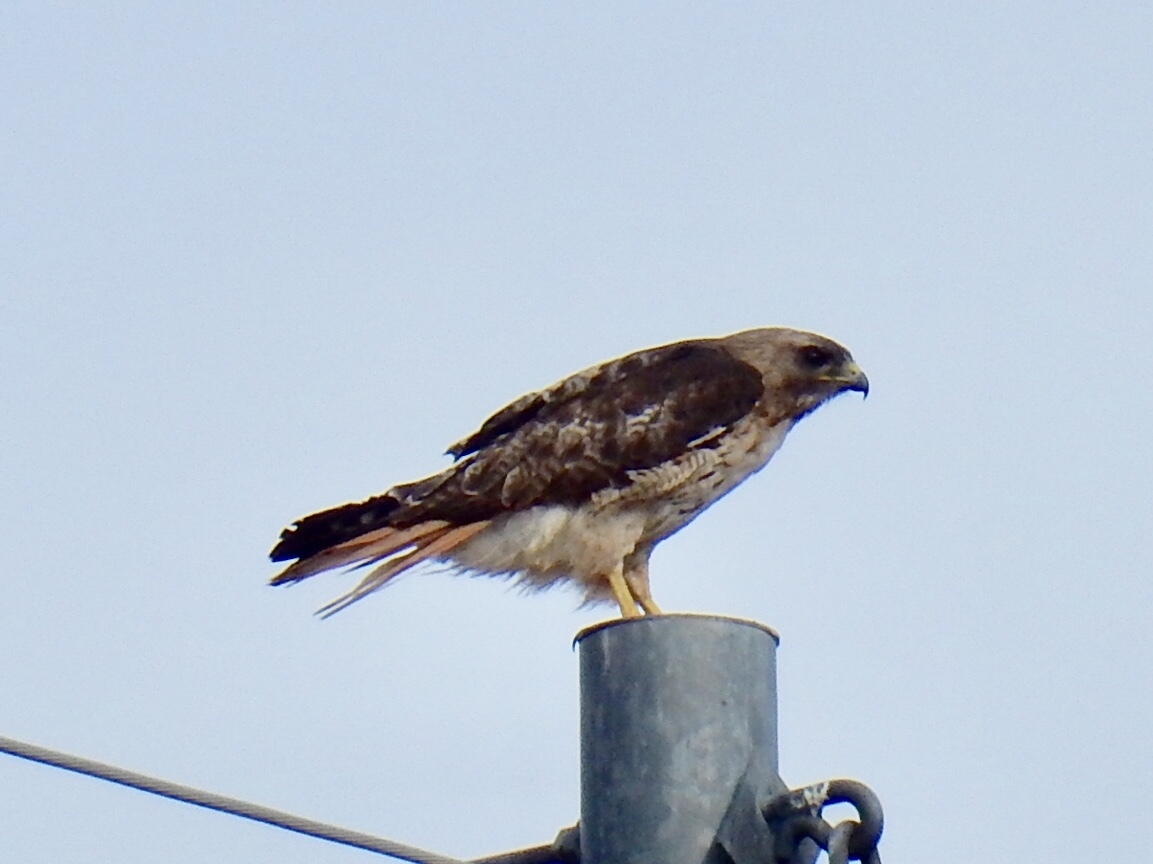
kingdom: Animalia
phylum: Chordata
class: Aves
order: Accipitriformes
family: Accipitridae
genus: Buteo
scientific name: Buteo jamaicensis
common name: Red-tailed hawk
